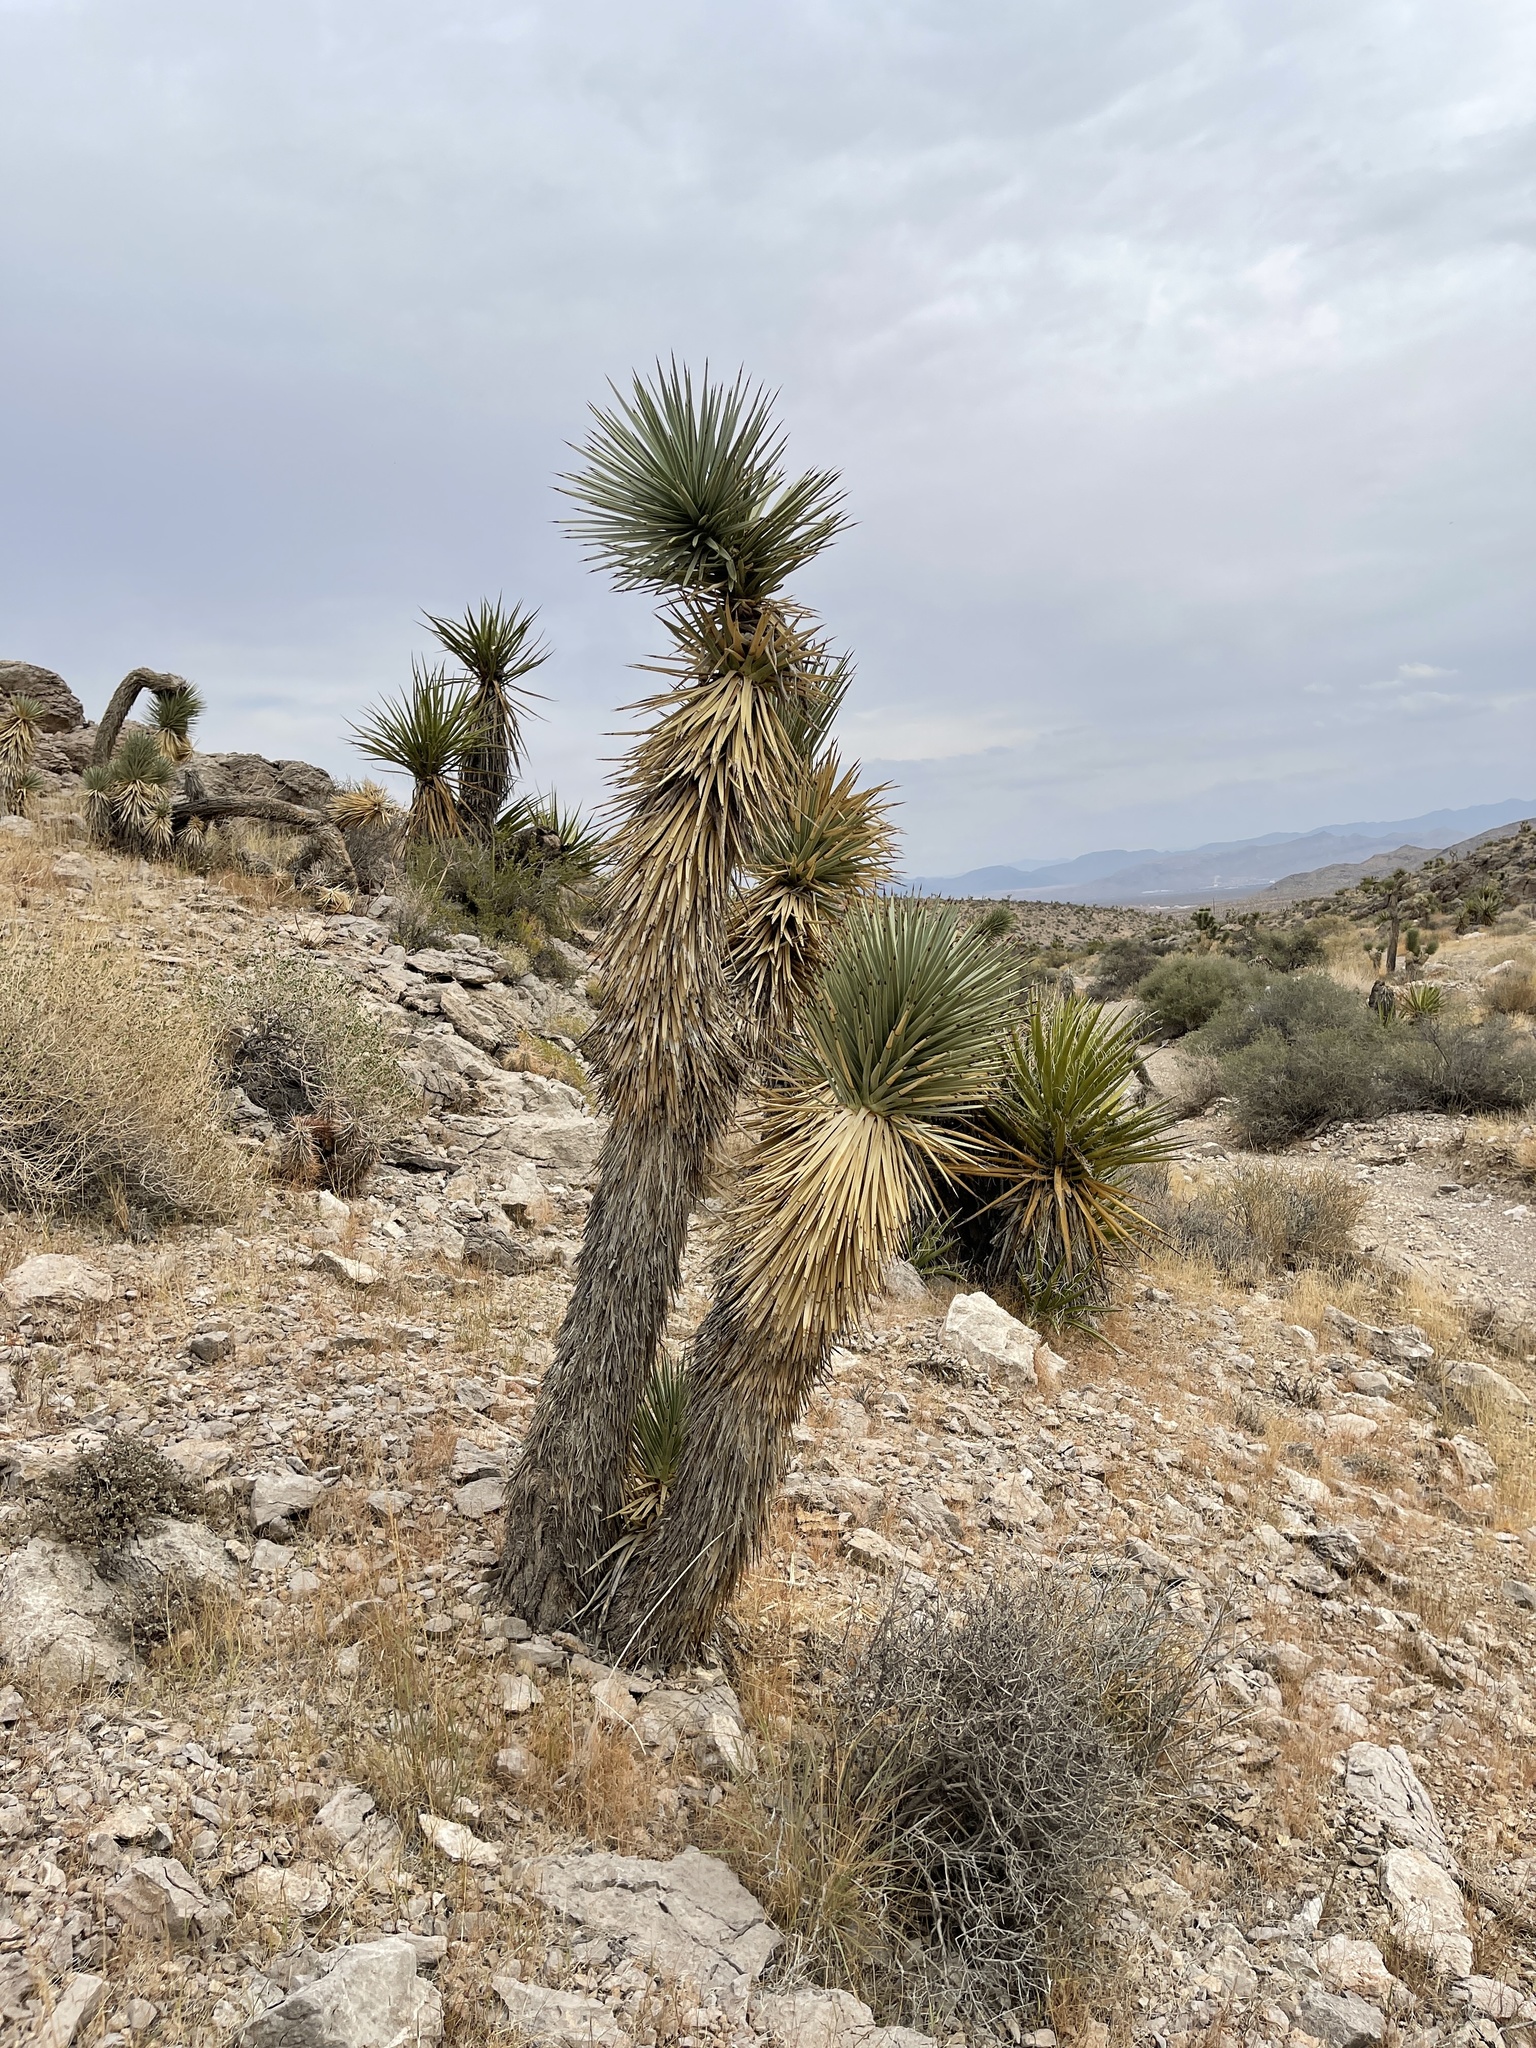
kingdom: Plantae
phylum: Tracheophyta
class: Liliopsida
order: Asparagales
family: Asparagaceae
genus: Yucca
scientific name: Yucca brevifolia
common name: Joshua tree
